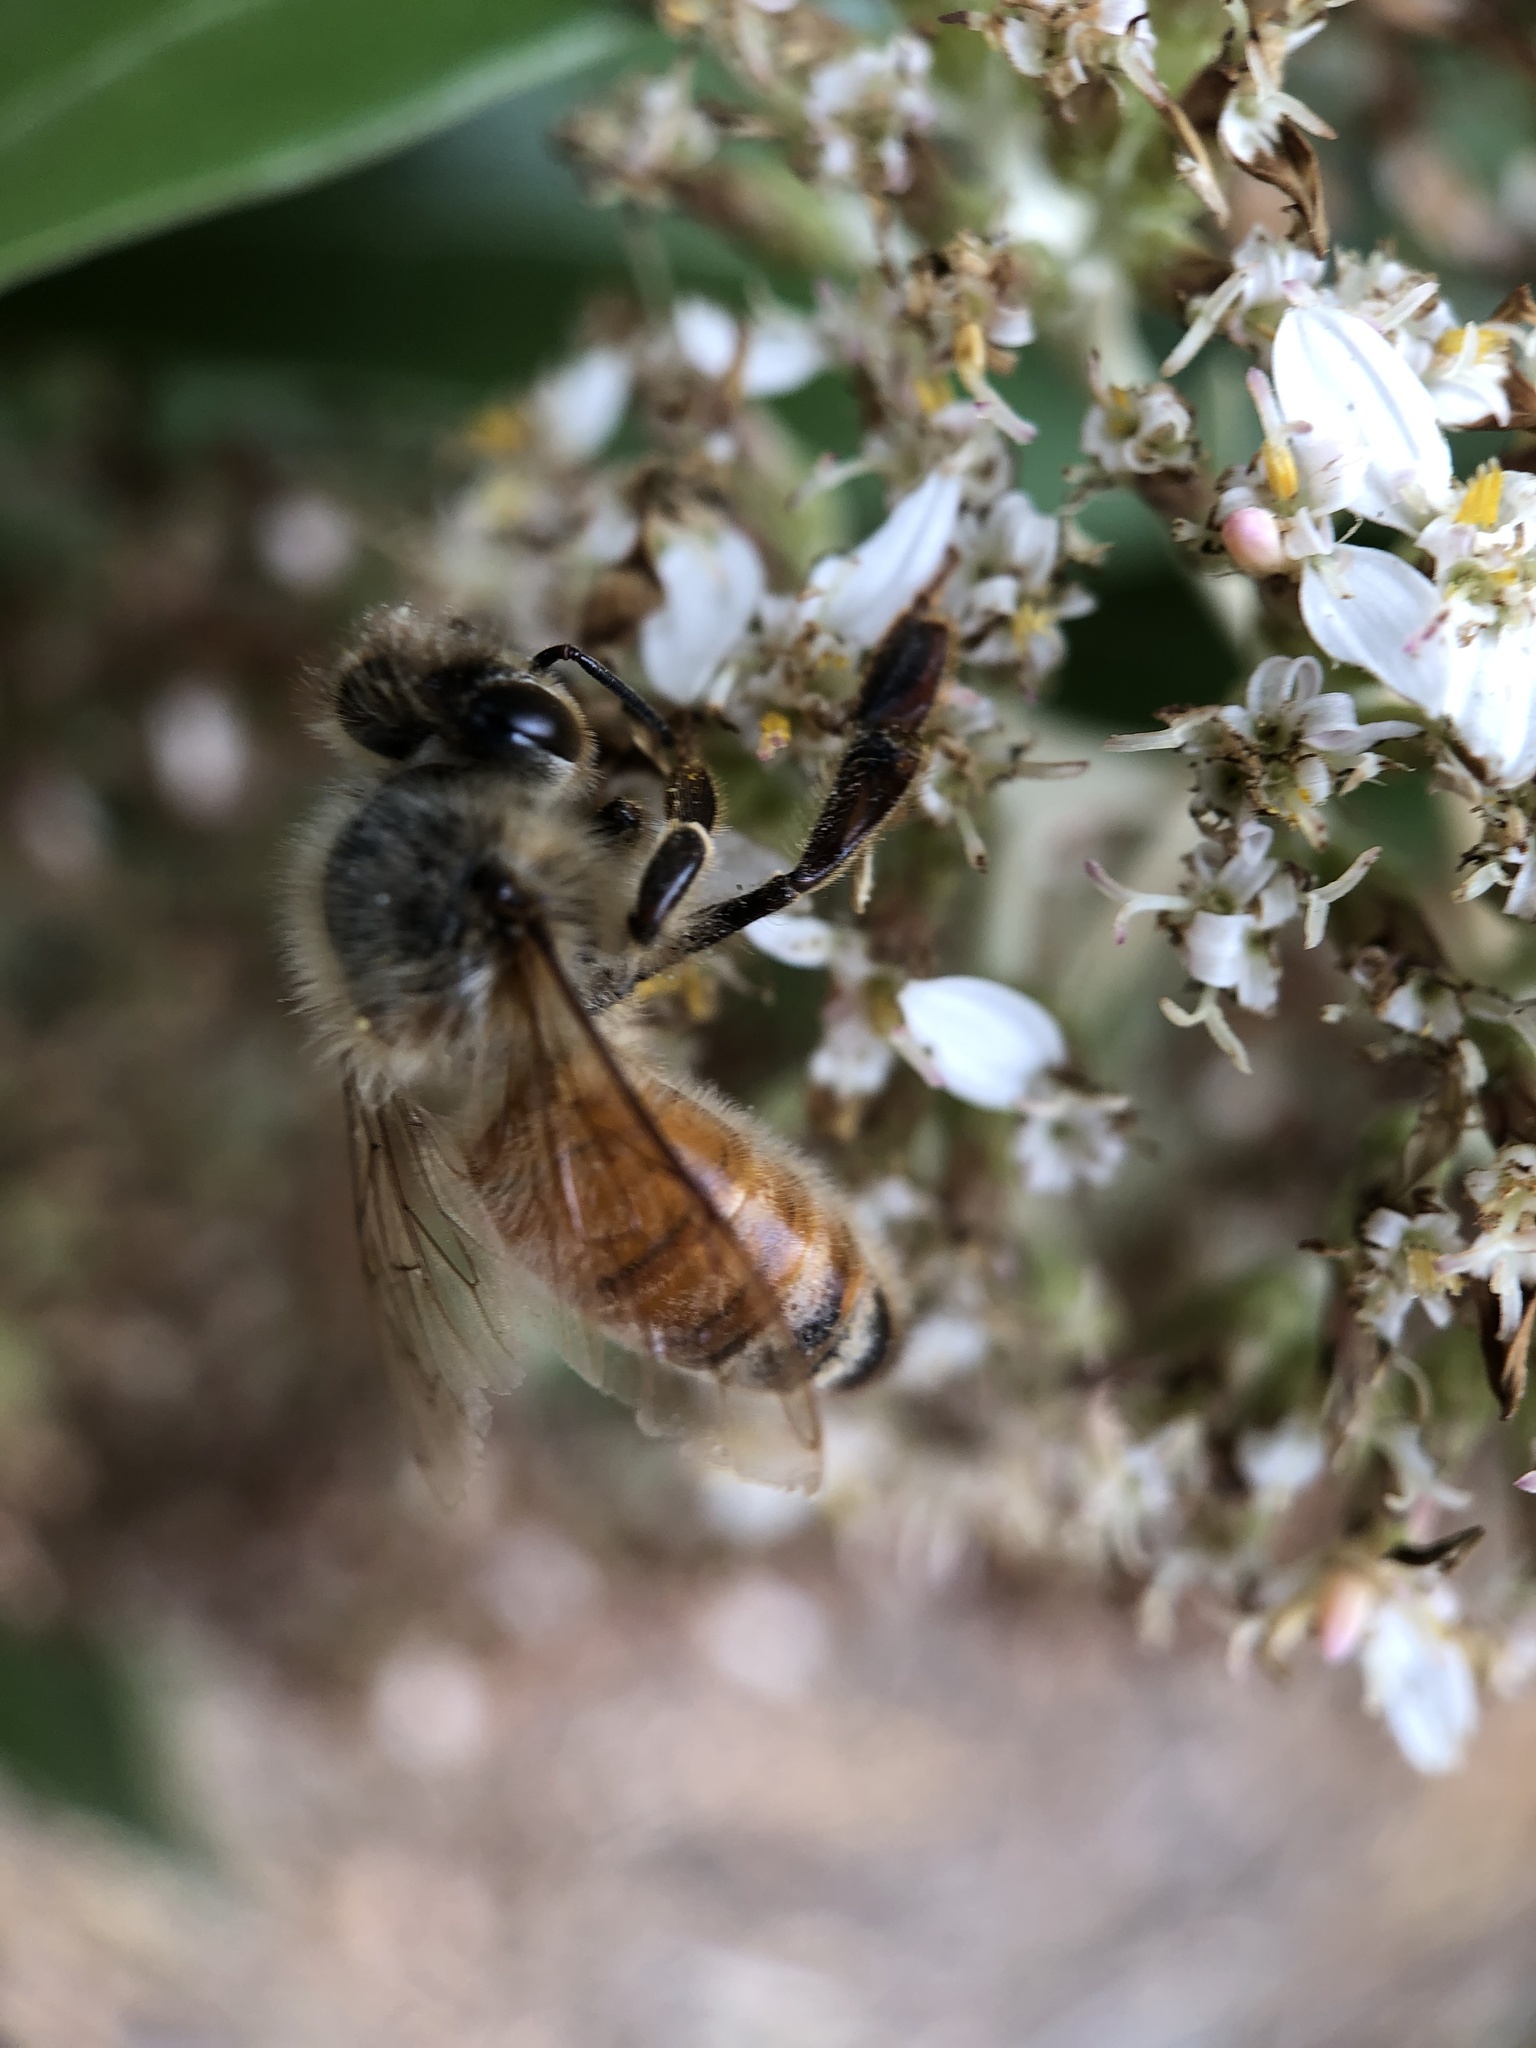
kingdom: Animalia
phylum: Arthropoda
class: Insecta
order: Hymenoptera
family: Apidae
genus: Apis
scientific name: Apis mellifera
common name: Honey bee
